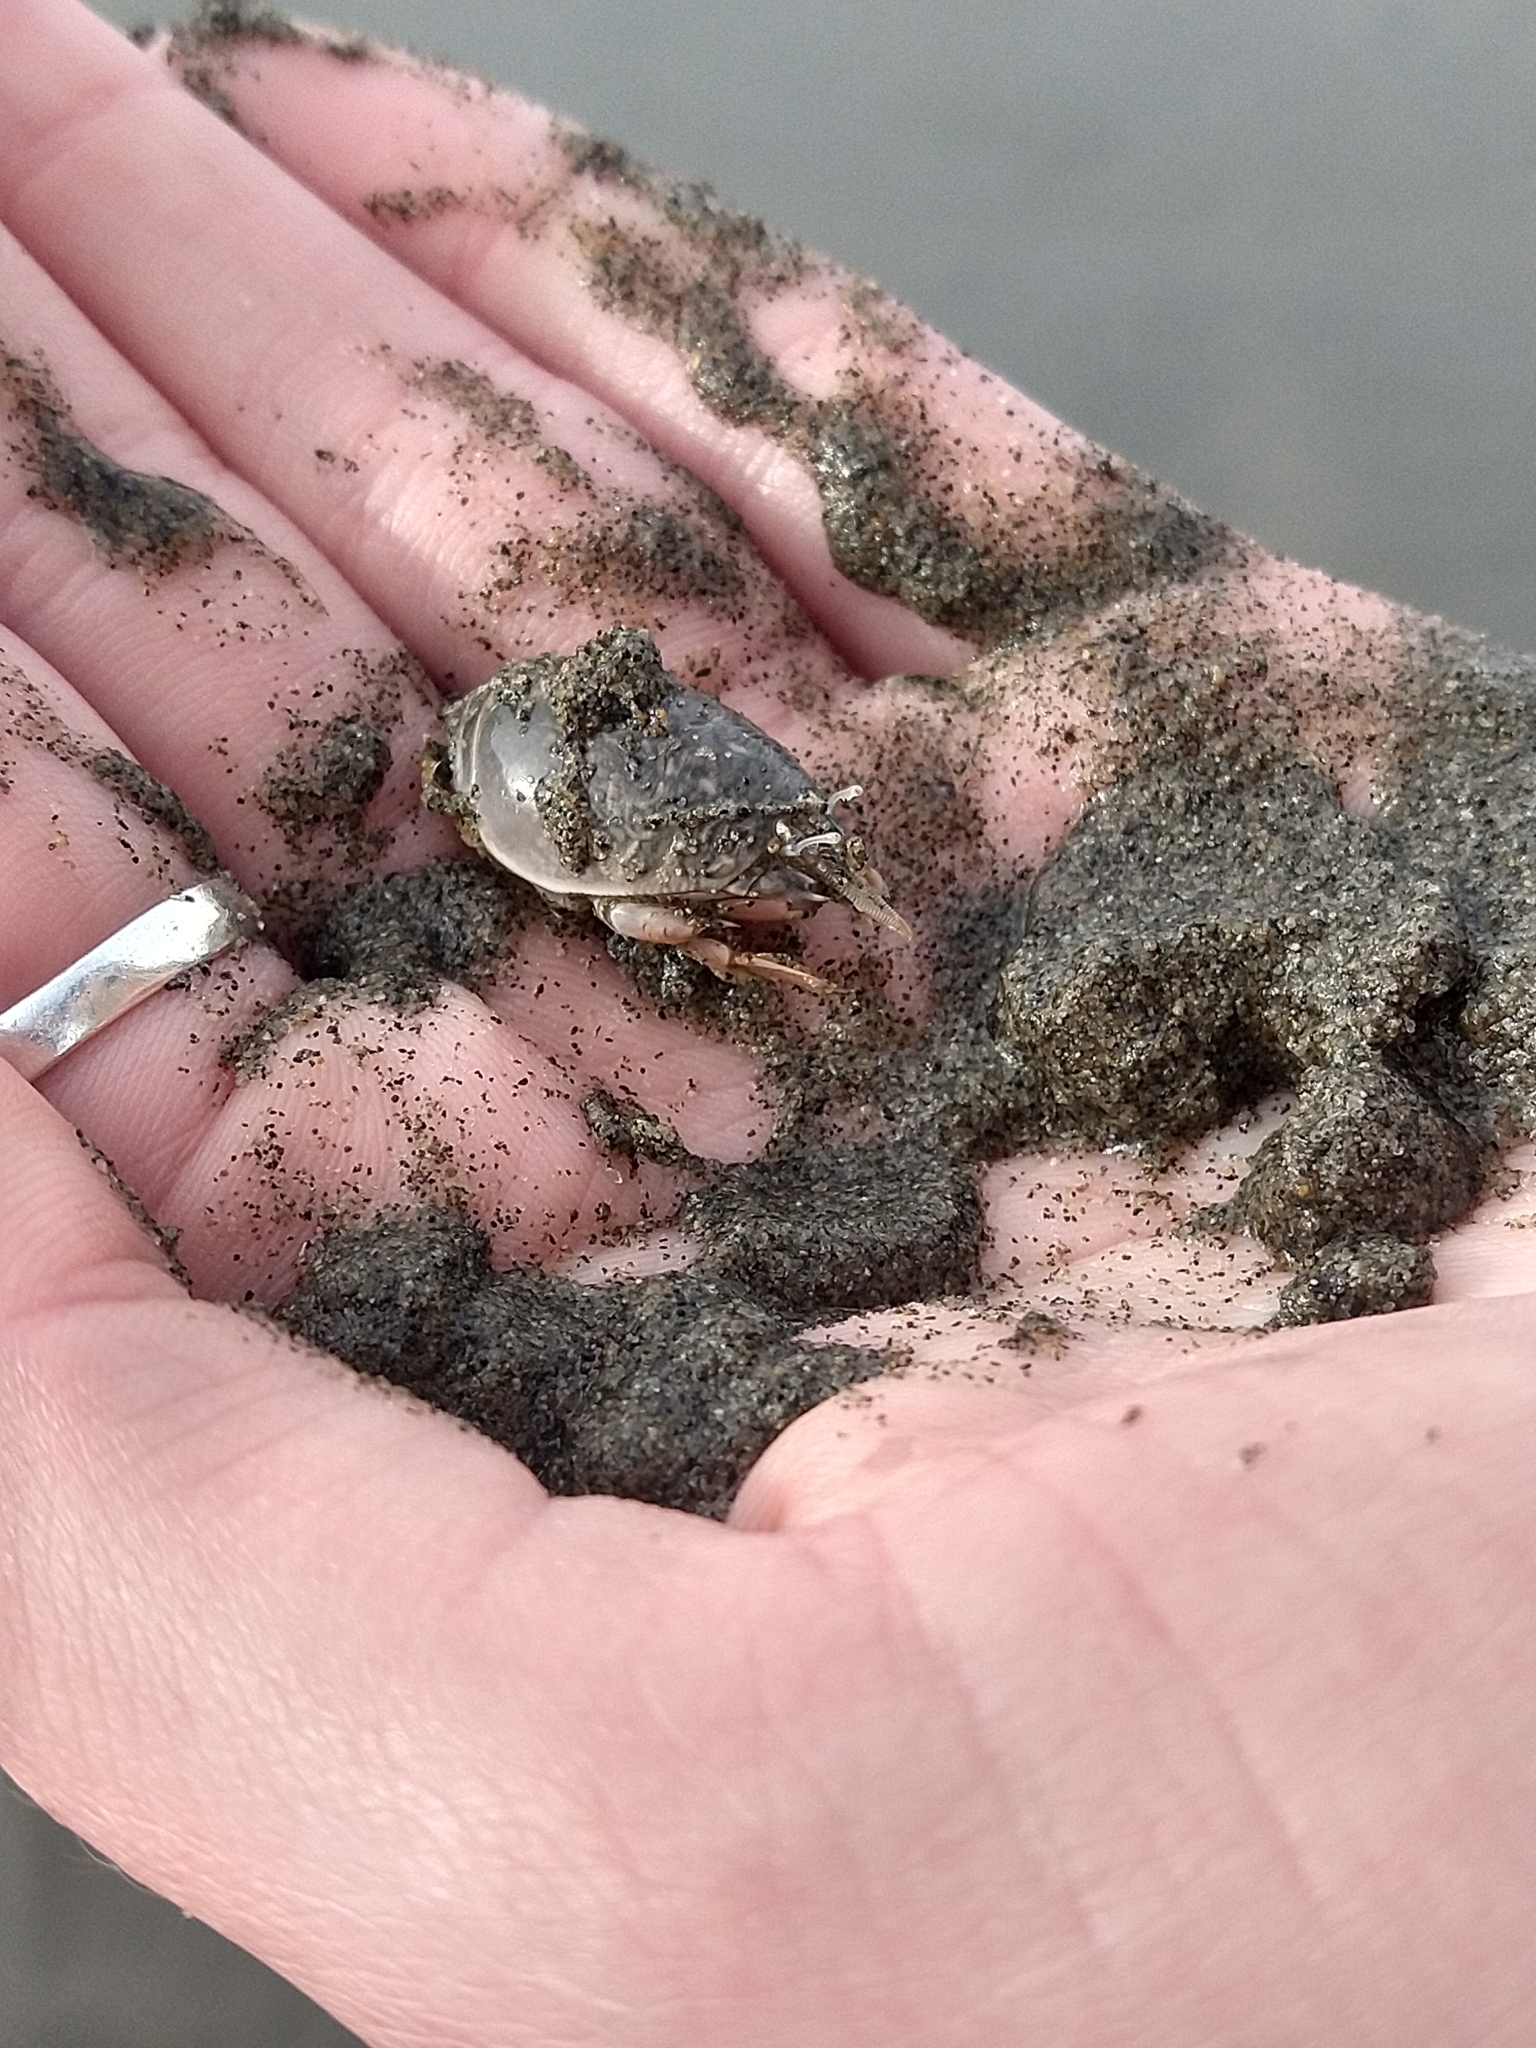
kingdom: Animalia
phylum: Arthropoda
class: Malacostraca
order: Decapoda
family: Hippidae
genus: Emerita
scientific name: Emerita analoga
